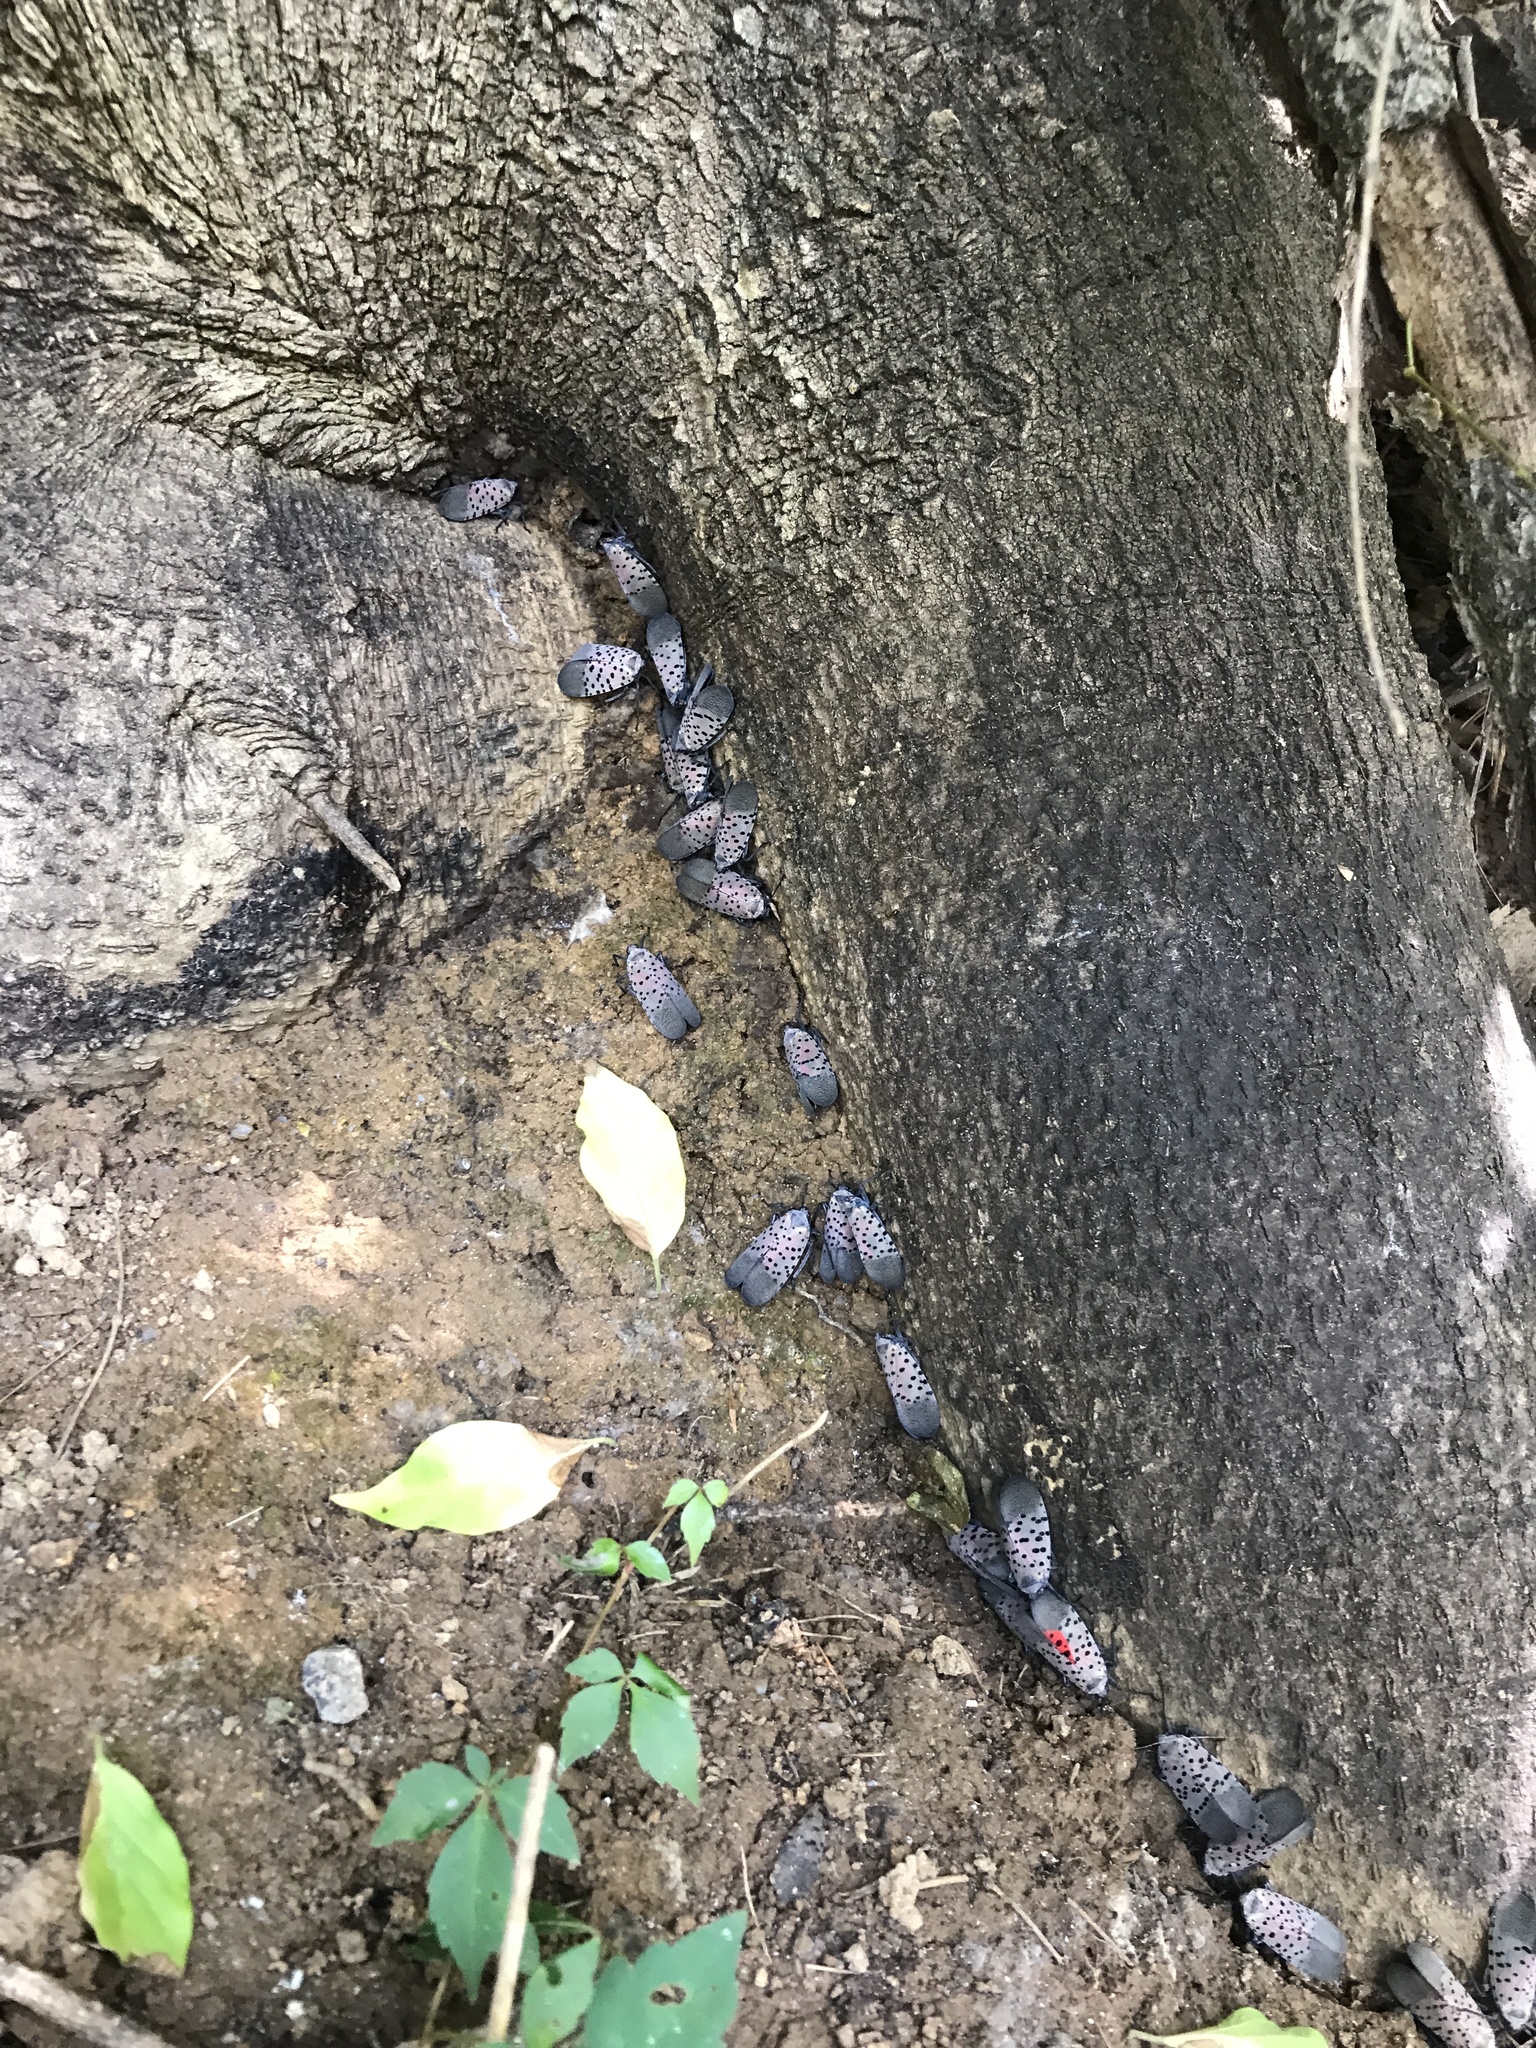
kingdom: Animalia
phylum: Arthropoda
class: Insecta
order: Hemiptera
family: Fulgoridae
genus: Lycorma
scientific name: Lycorma delicatula
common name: Spotted lanternfly
